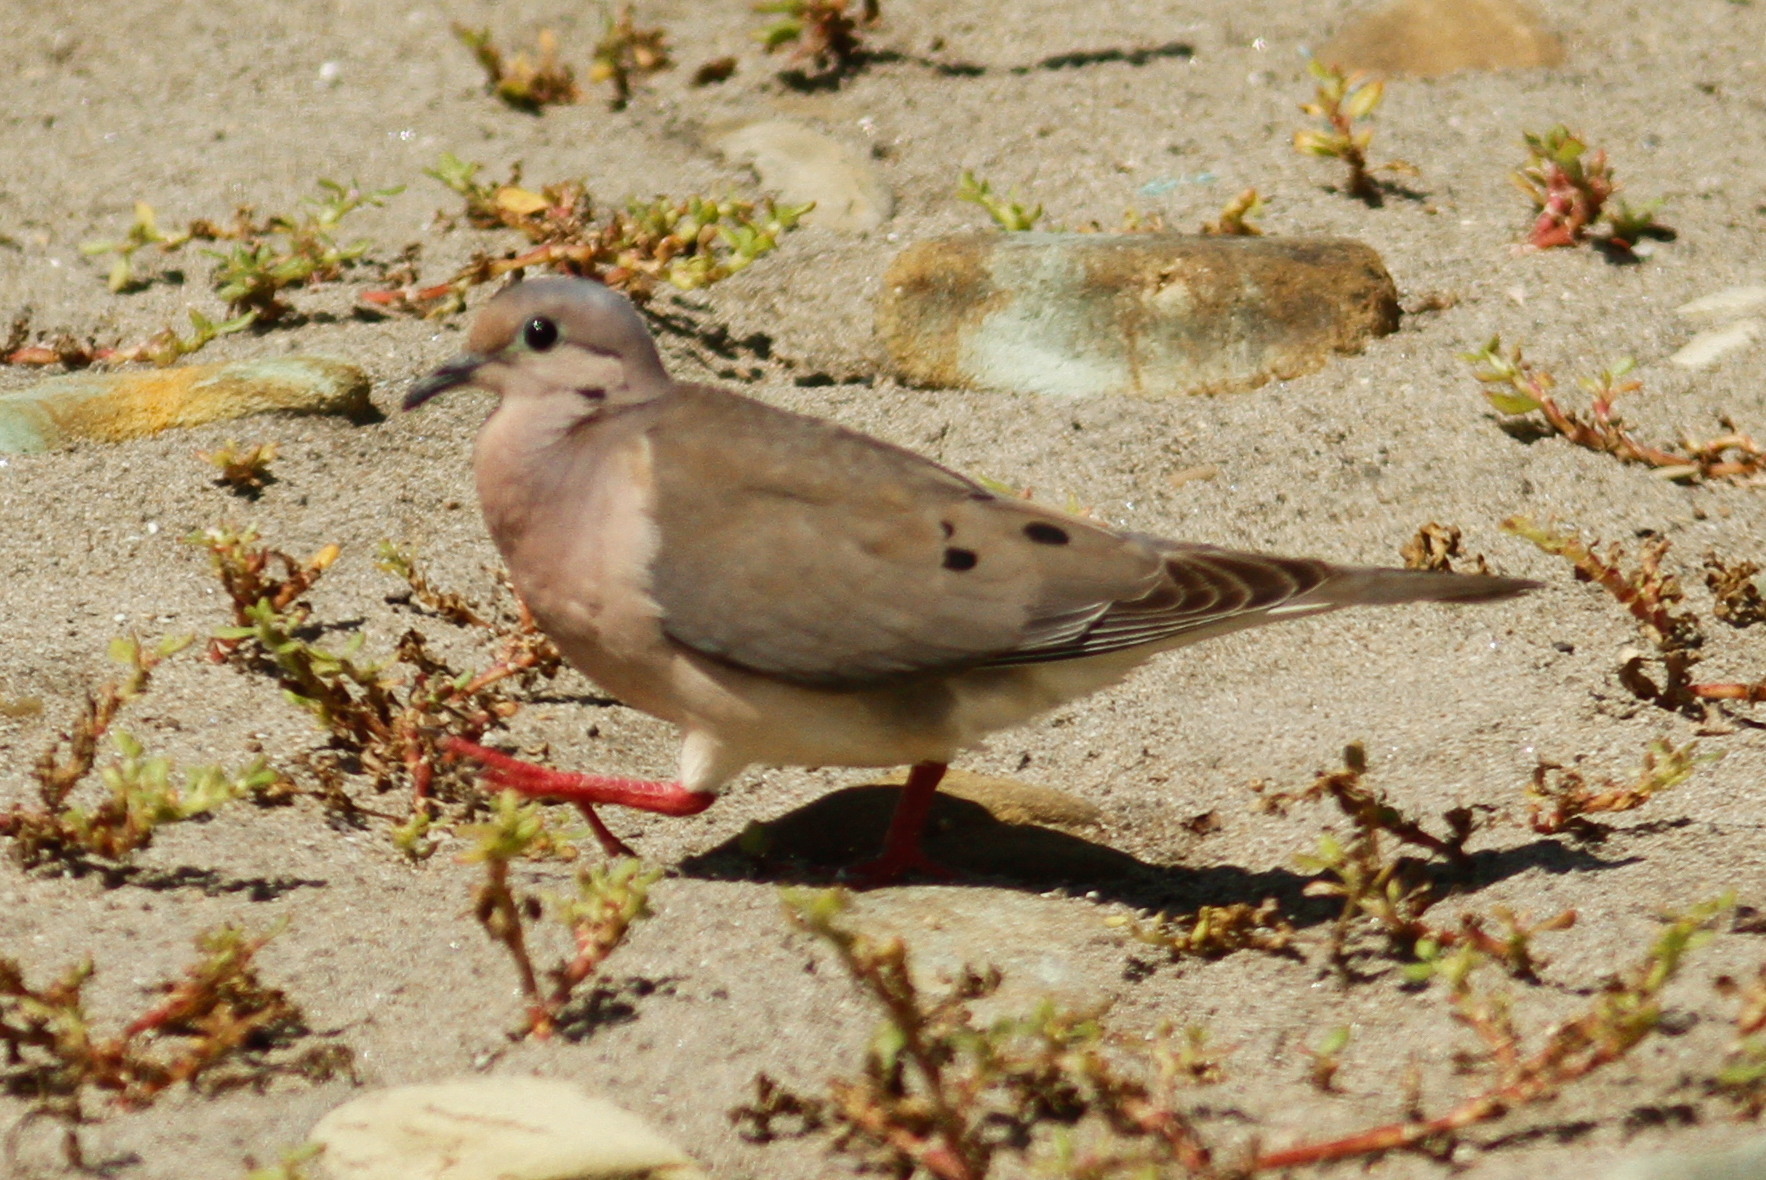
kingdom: Animalia
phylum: Chordata
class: Aves
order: Columbiformes
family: Columbidae
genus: Zenaida
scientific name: Zenaida auriculata
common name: Eared dove
